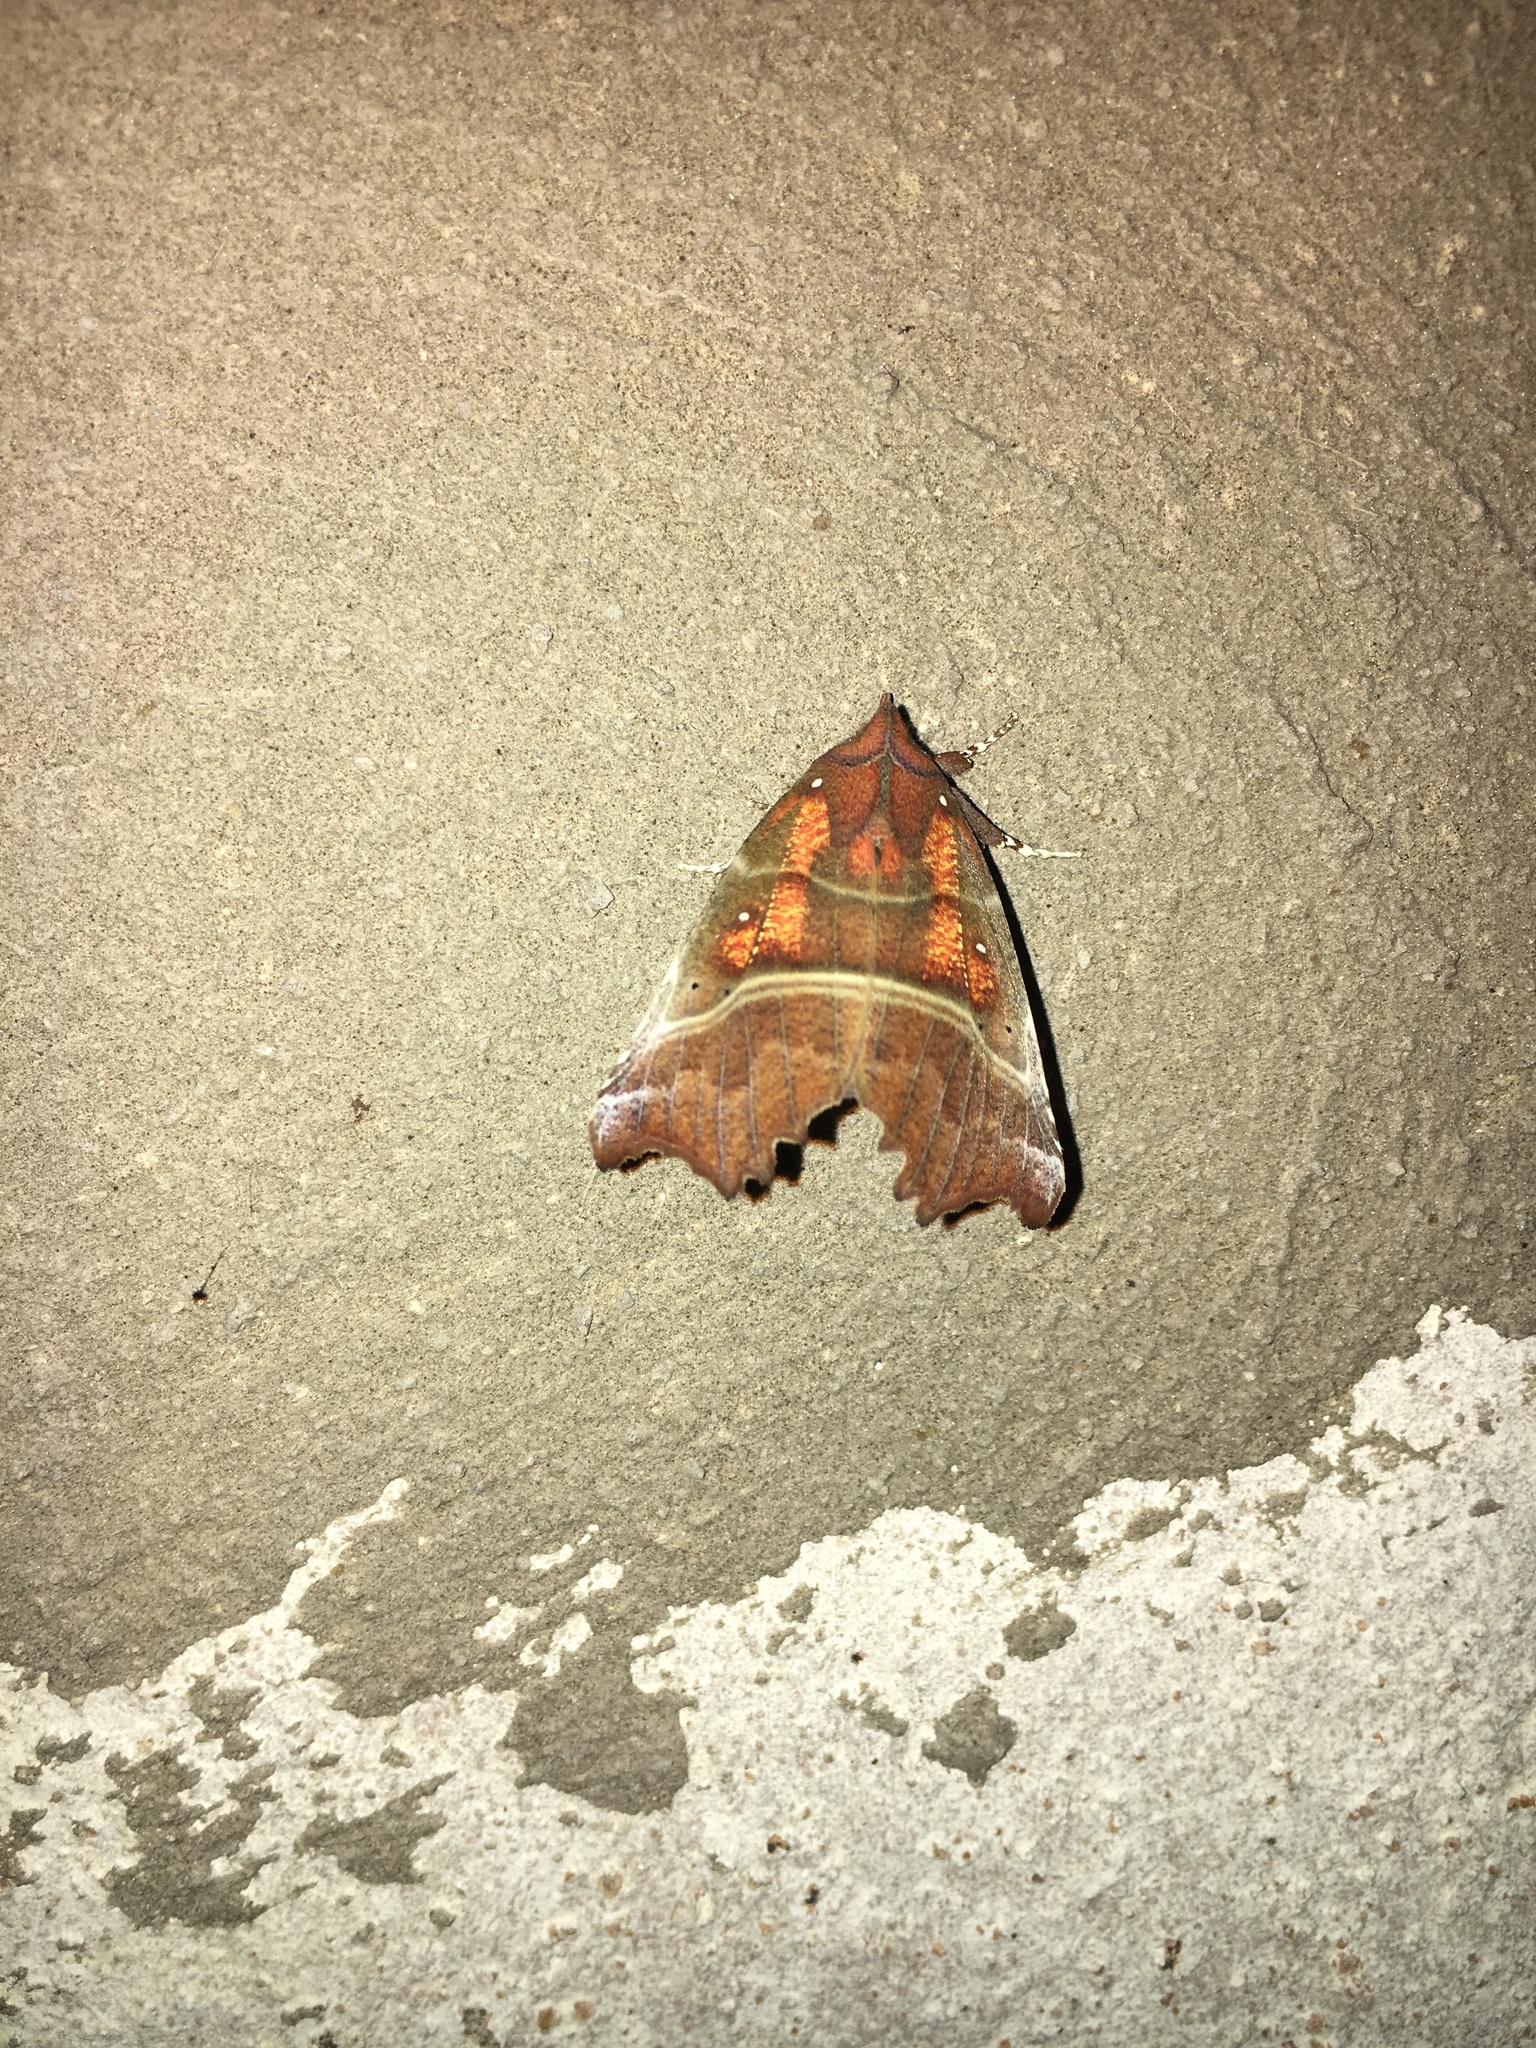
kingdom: Animalia
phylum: Arthropoda
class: Insecta
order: Lepidoptera
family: Erebidae
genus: Scoliopteryx
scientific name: Scoliopteryx libatrix
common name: Herald
